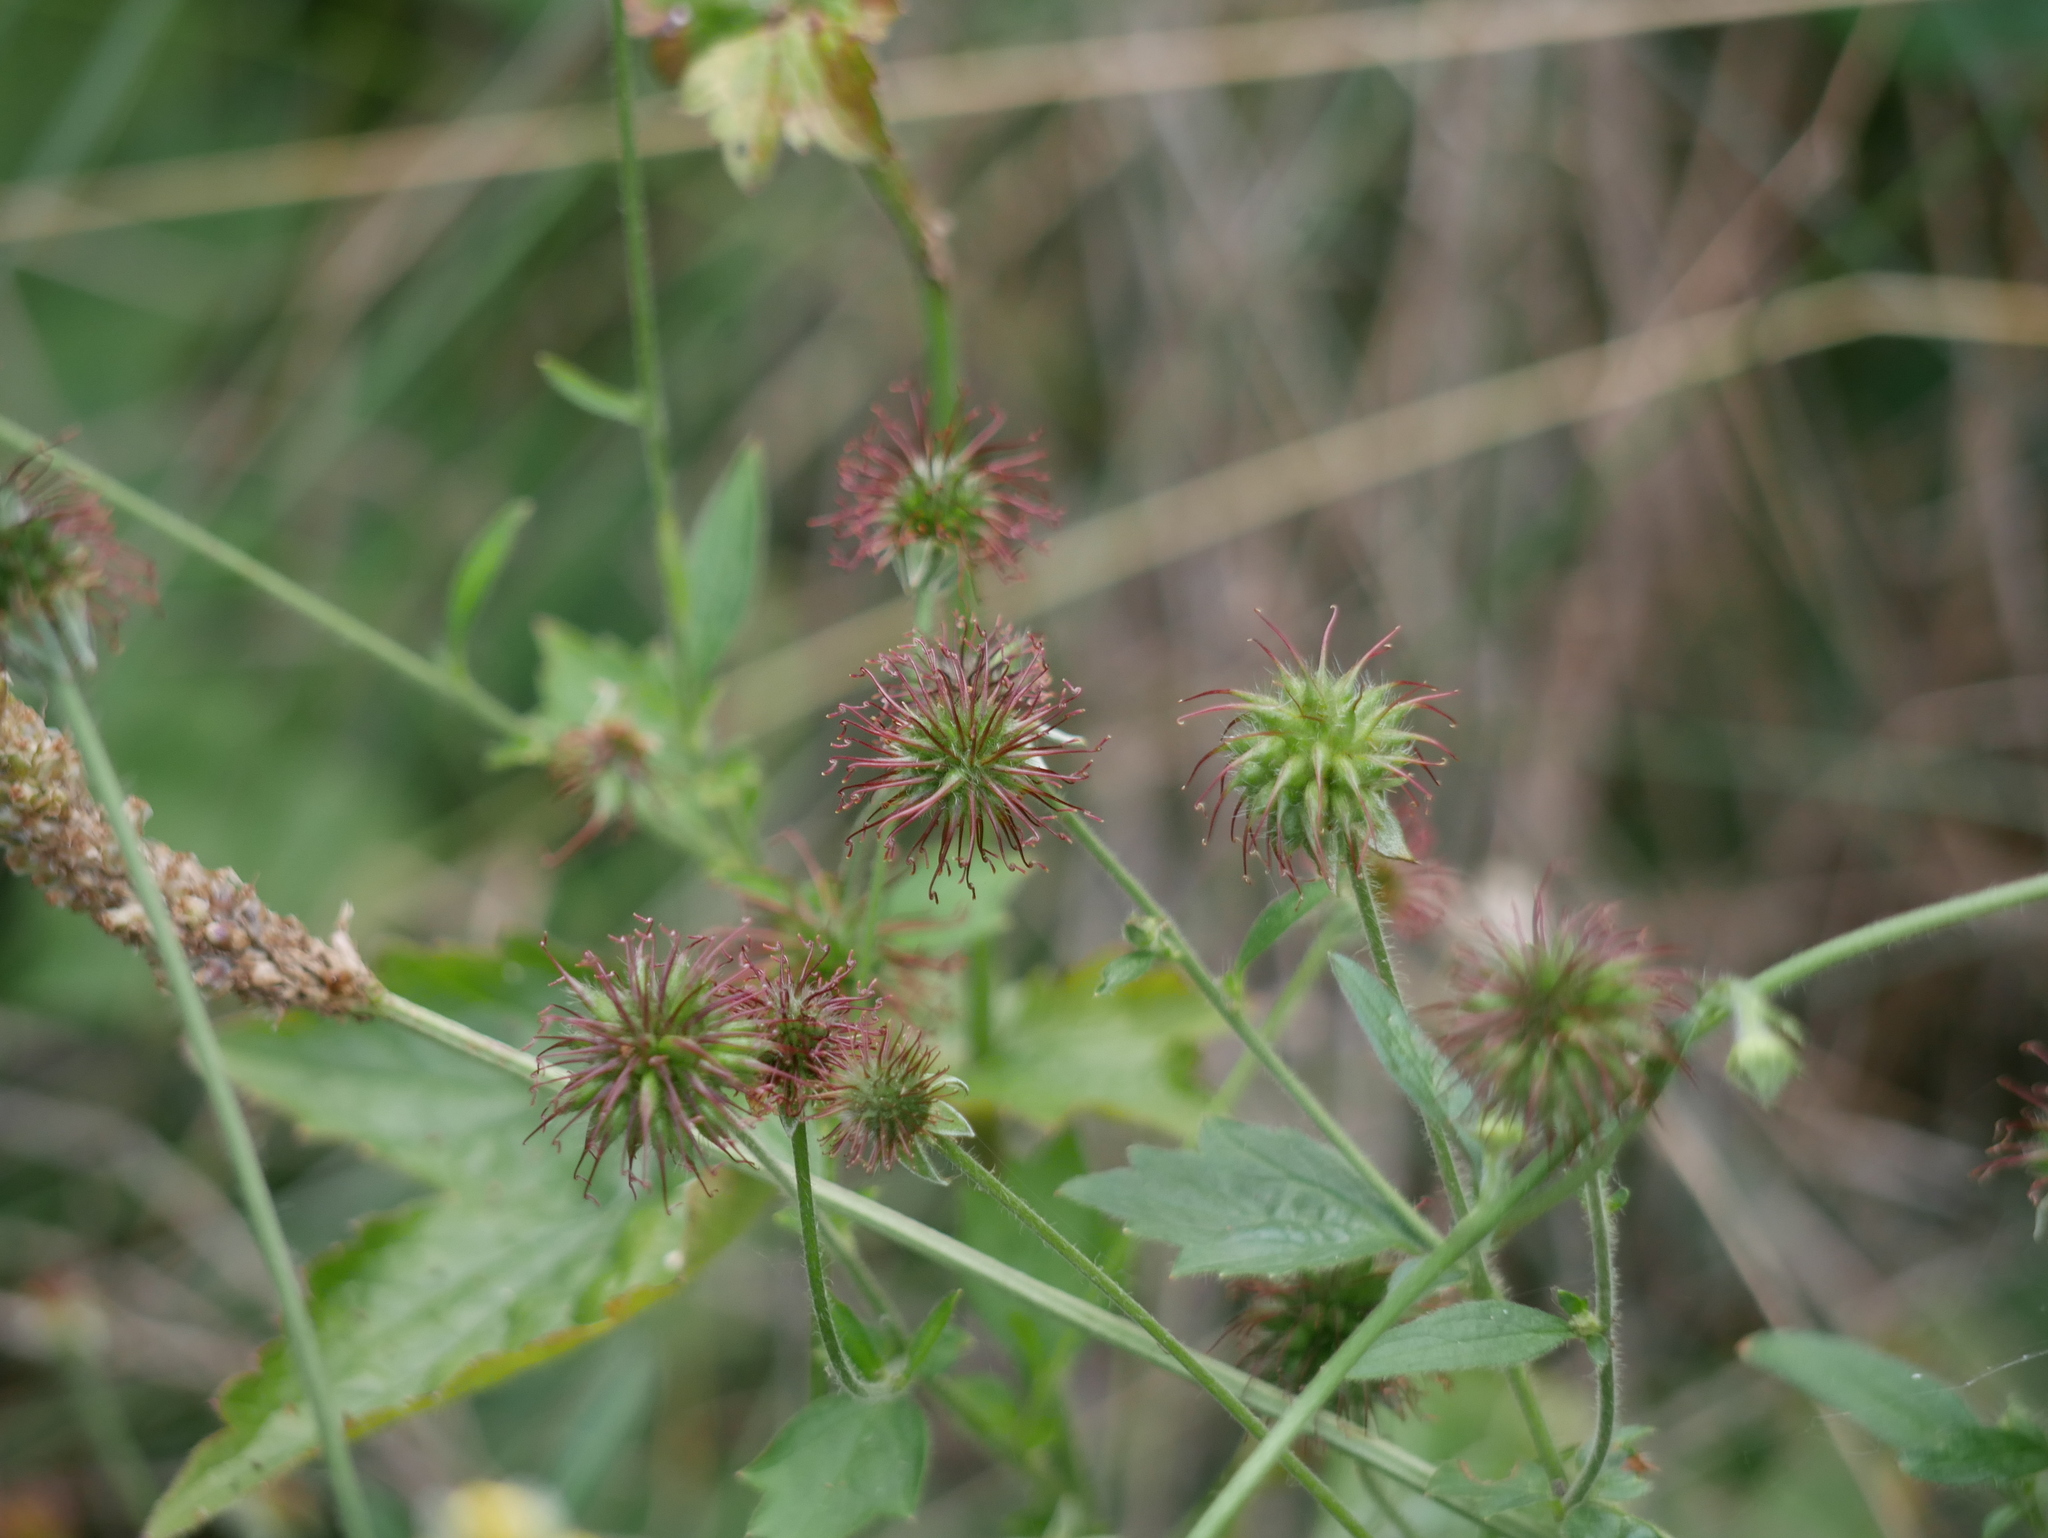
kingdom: Plantae
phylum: Tracheophyta
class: Magnoliopsida
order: Rosales
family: Rosaceae
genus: Geum
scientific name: Geum urbanum
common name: Wood avens
